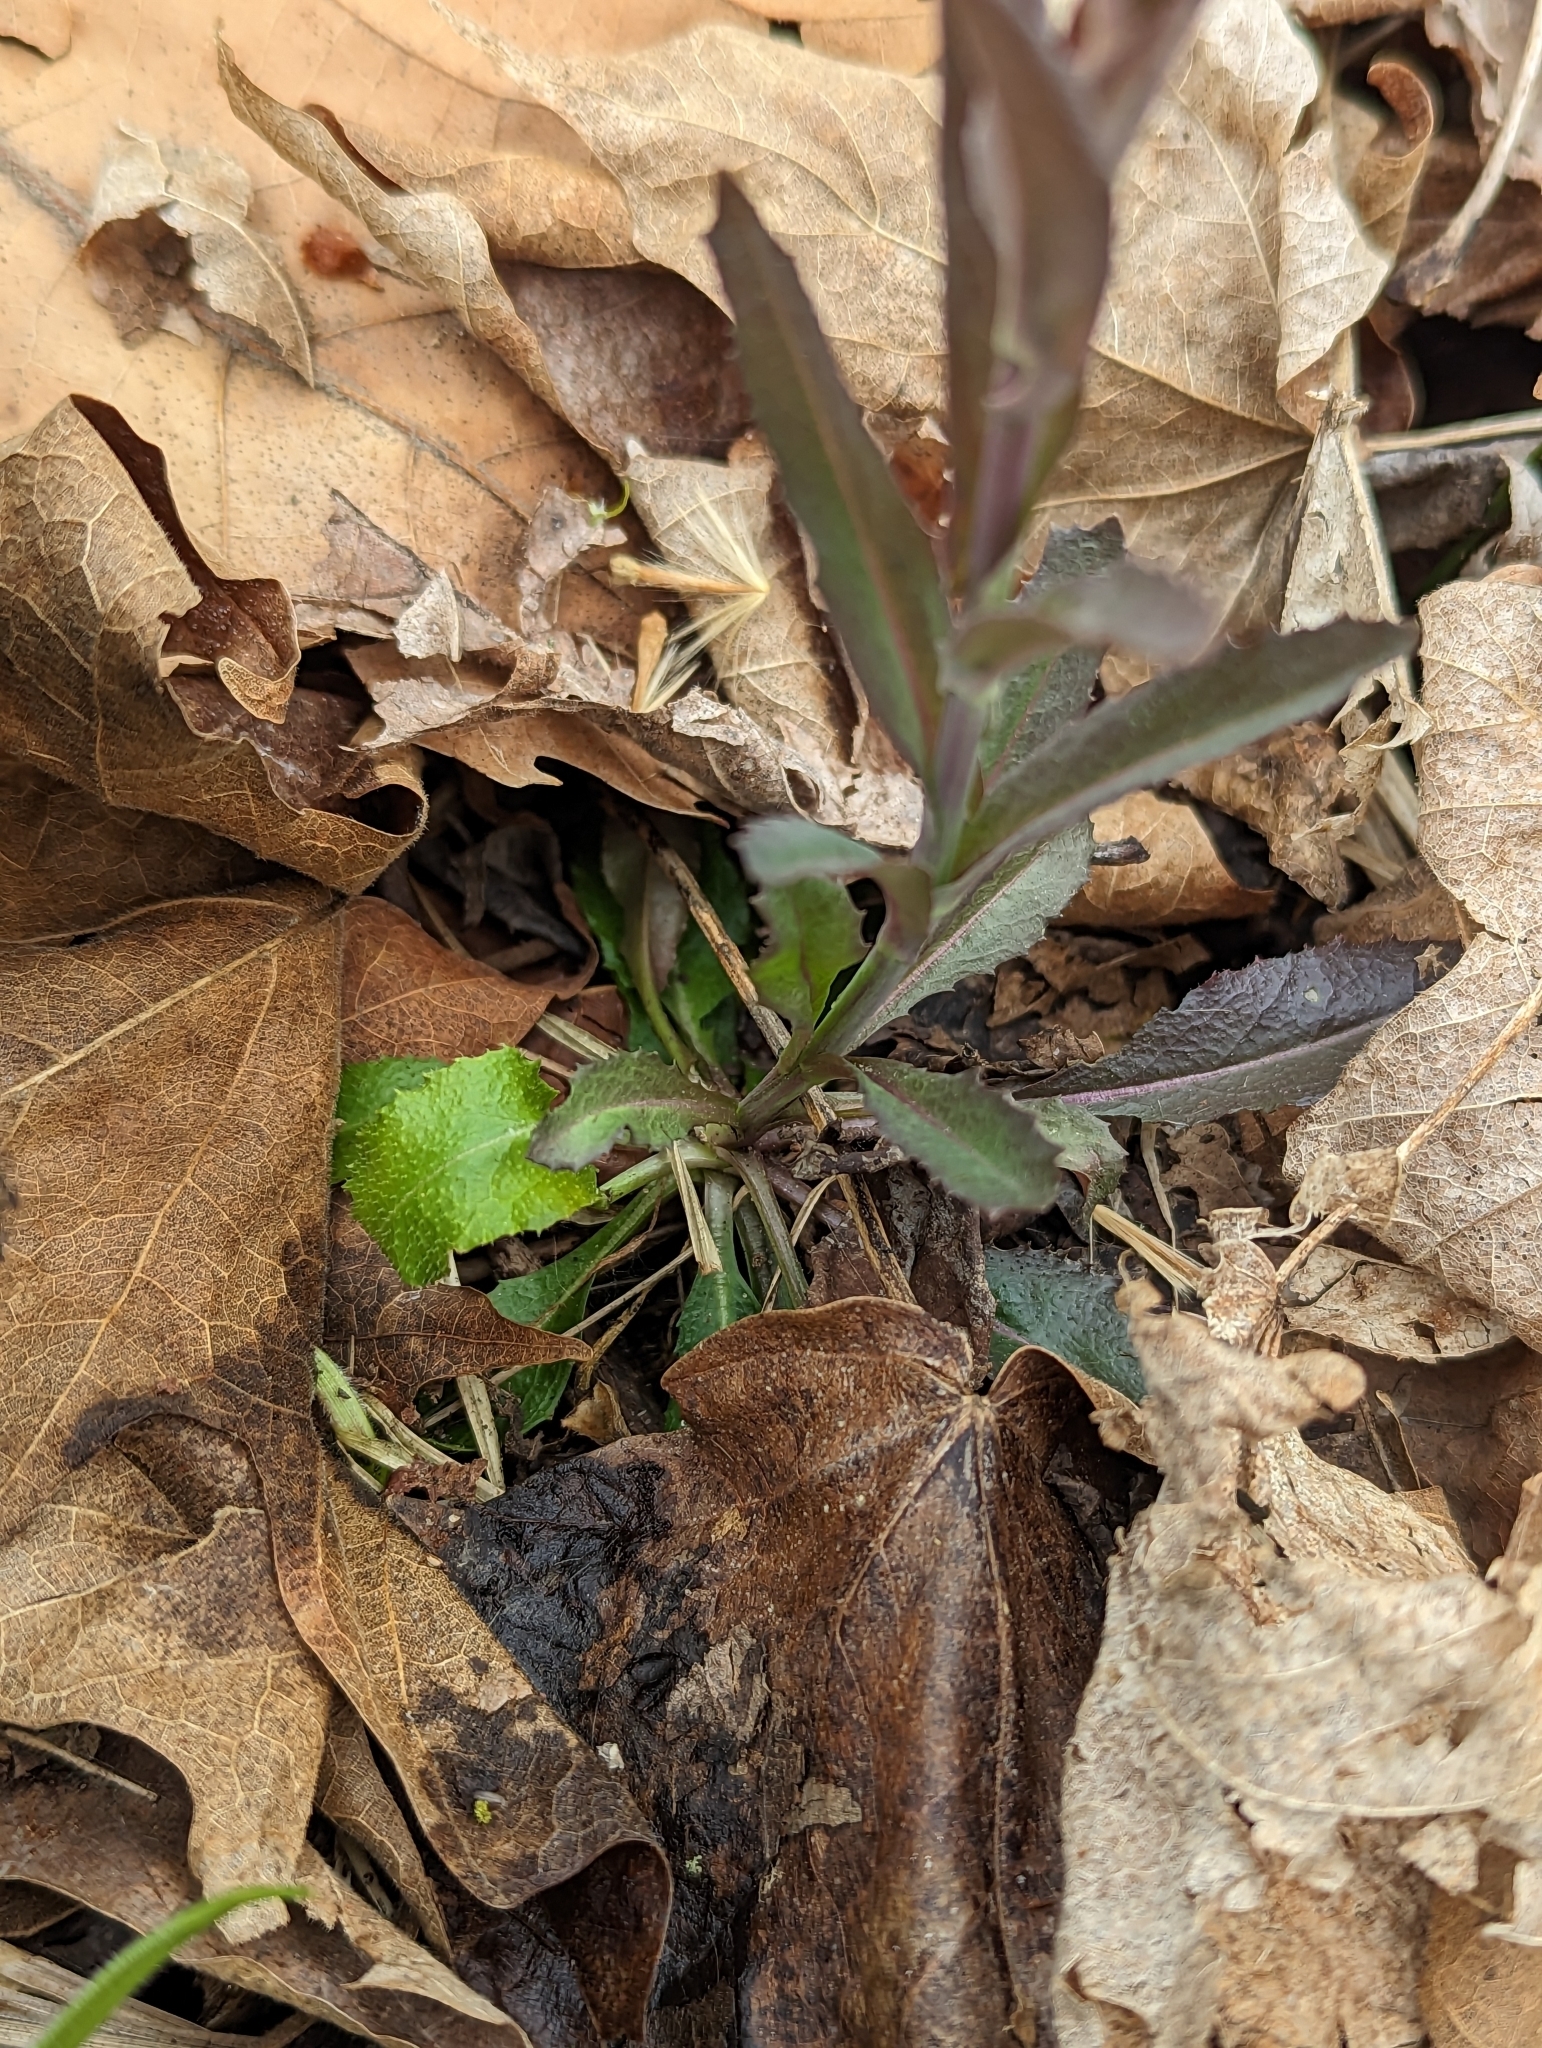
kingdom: Plantae
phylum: Tracheophyta
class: Magnoliopsida
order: Brassicales
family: Brassicaceae
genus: Borodinia
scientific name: Borodinia laevigata
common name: Smooth rockcress
